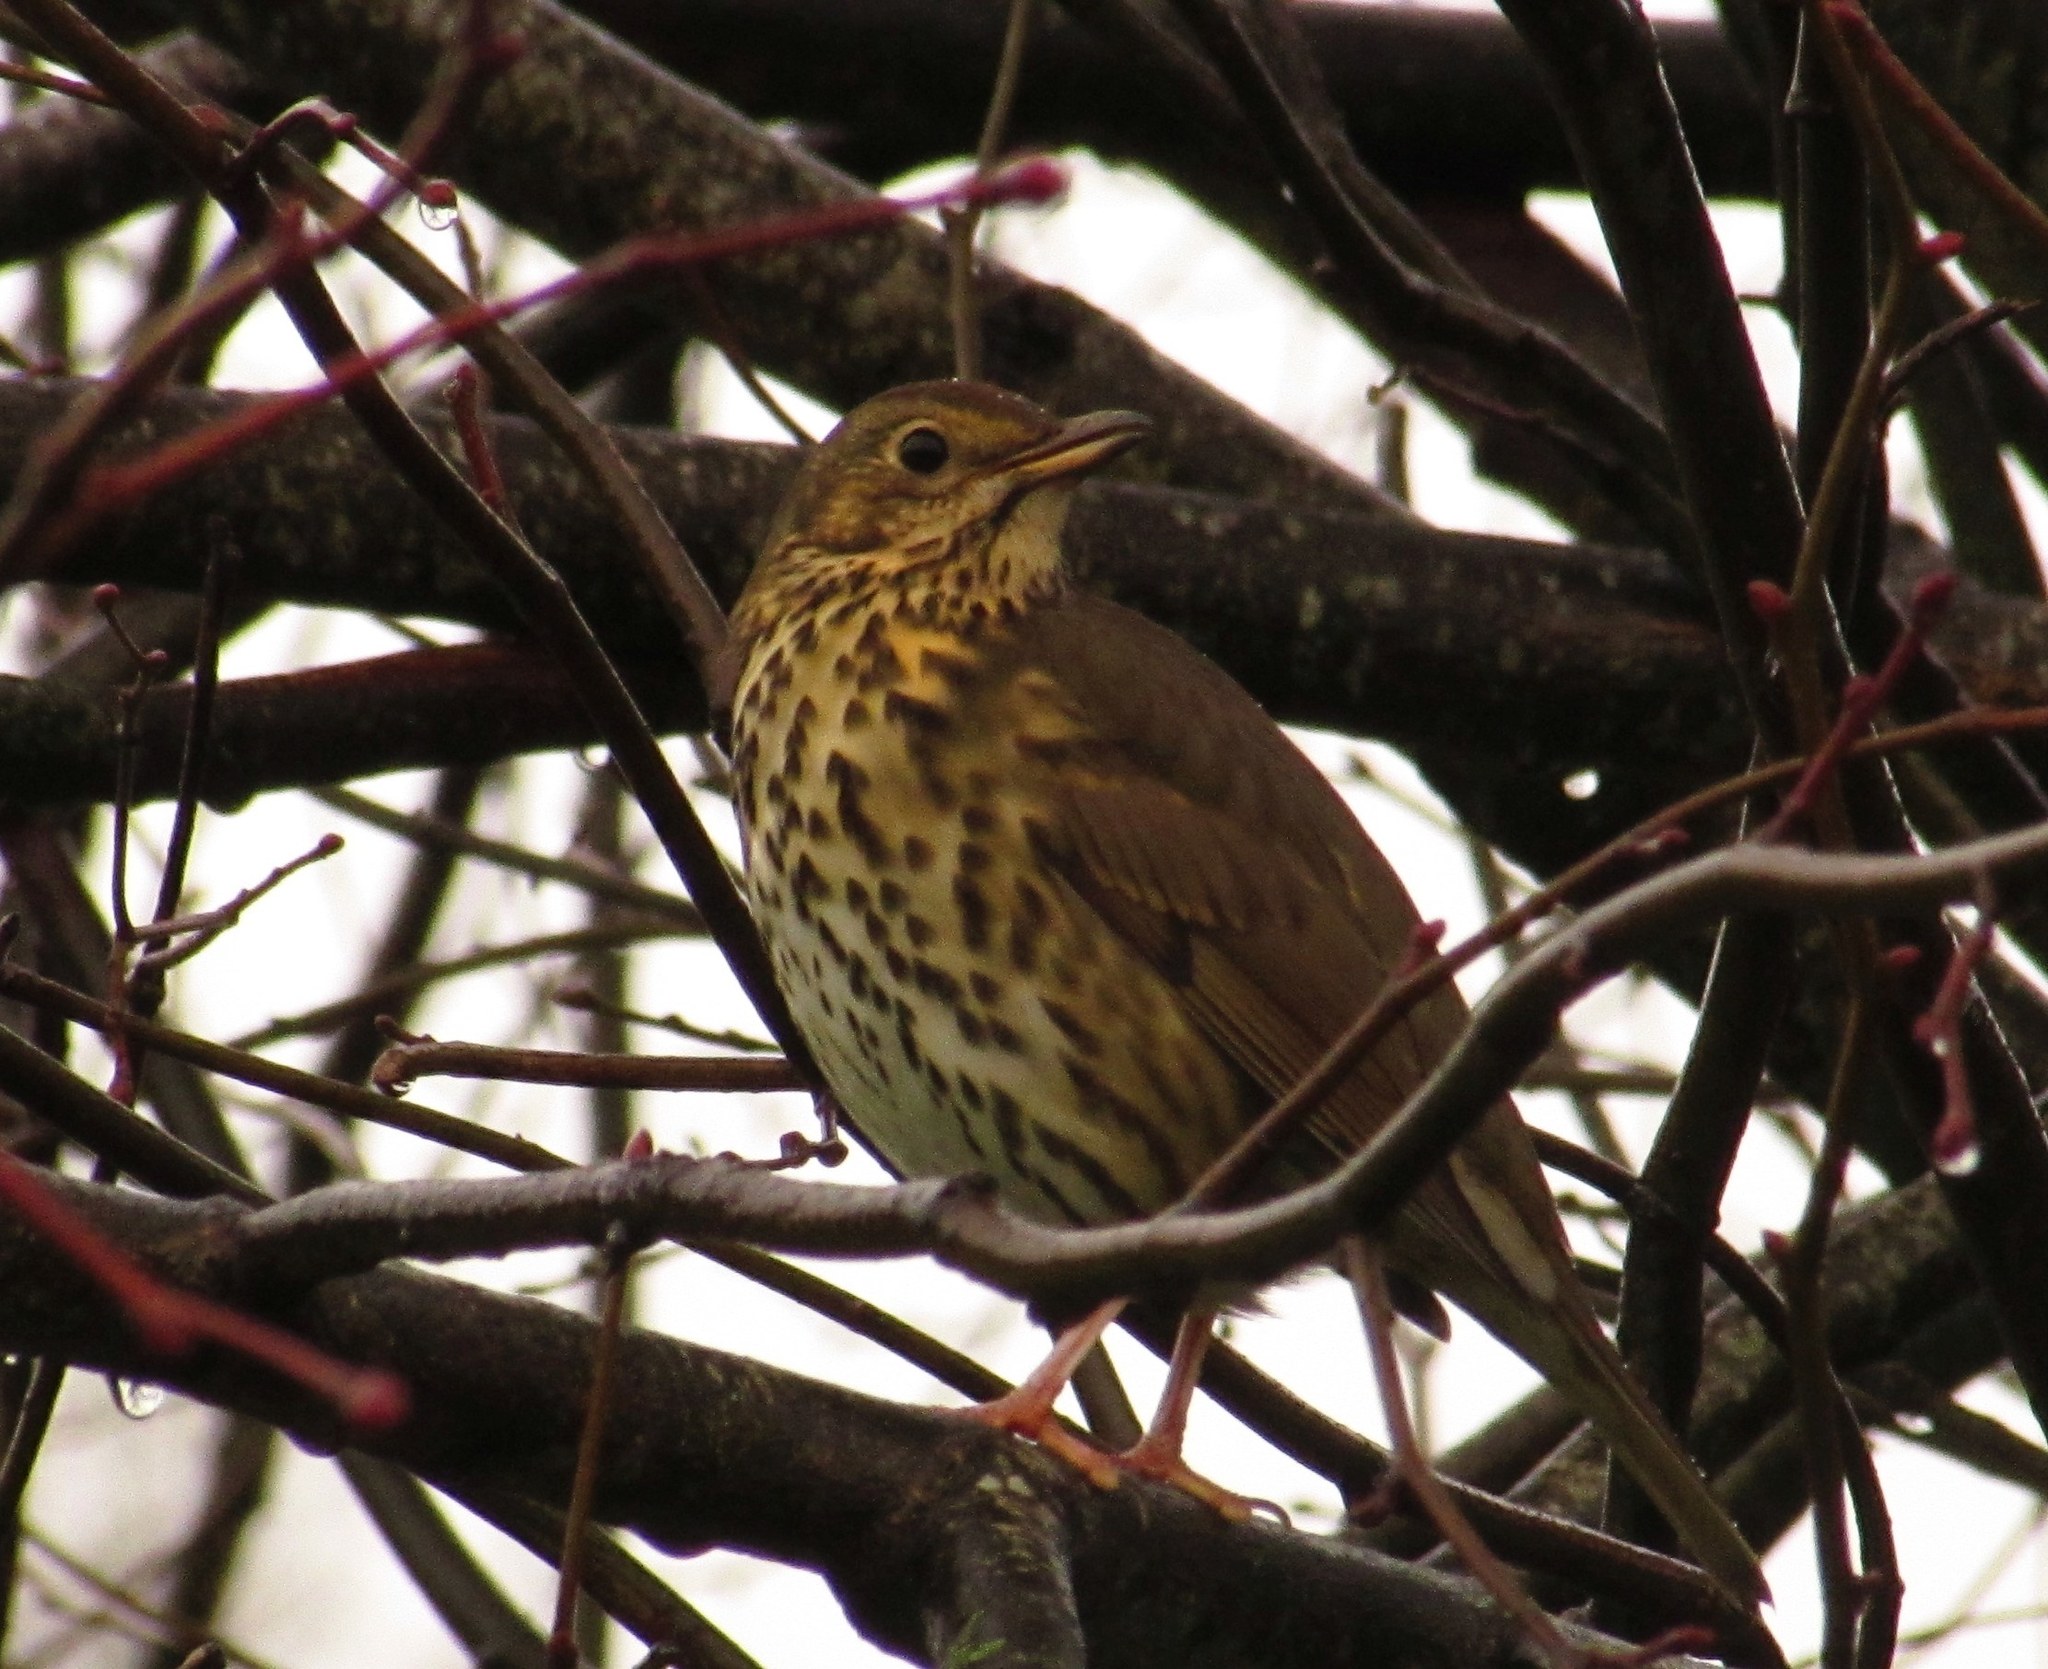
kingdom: Animalia
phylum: Chordata
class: Aves
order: Passeriformes
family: Turdidae
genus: Turdus
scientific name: Turdus philomelos
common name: Song thrush
